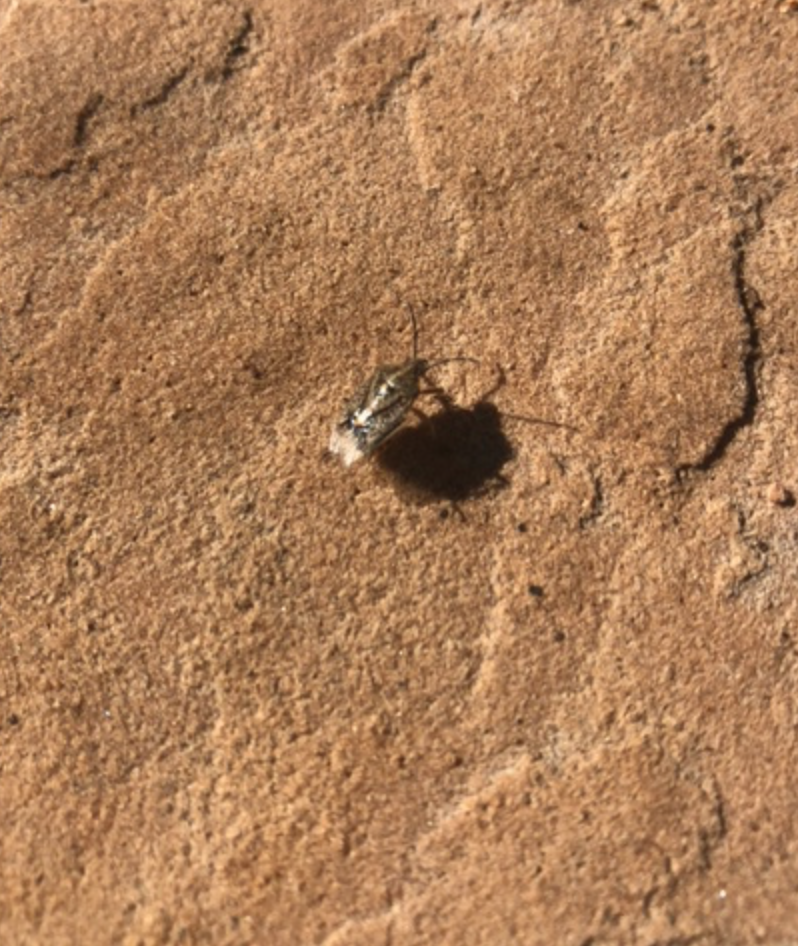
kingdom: Animalia
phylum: Arthropoda
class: Insecta
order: Hemiptera
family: Pentatomidae
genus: Agonoscelis
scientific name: Agonoscelis puberula
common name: African cluster bug
